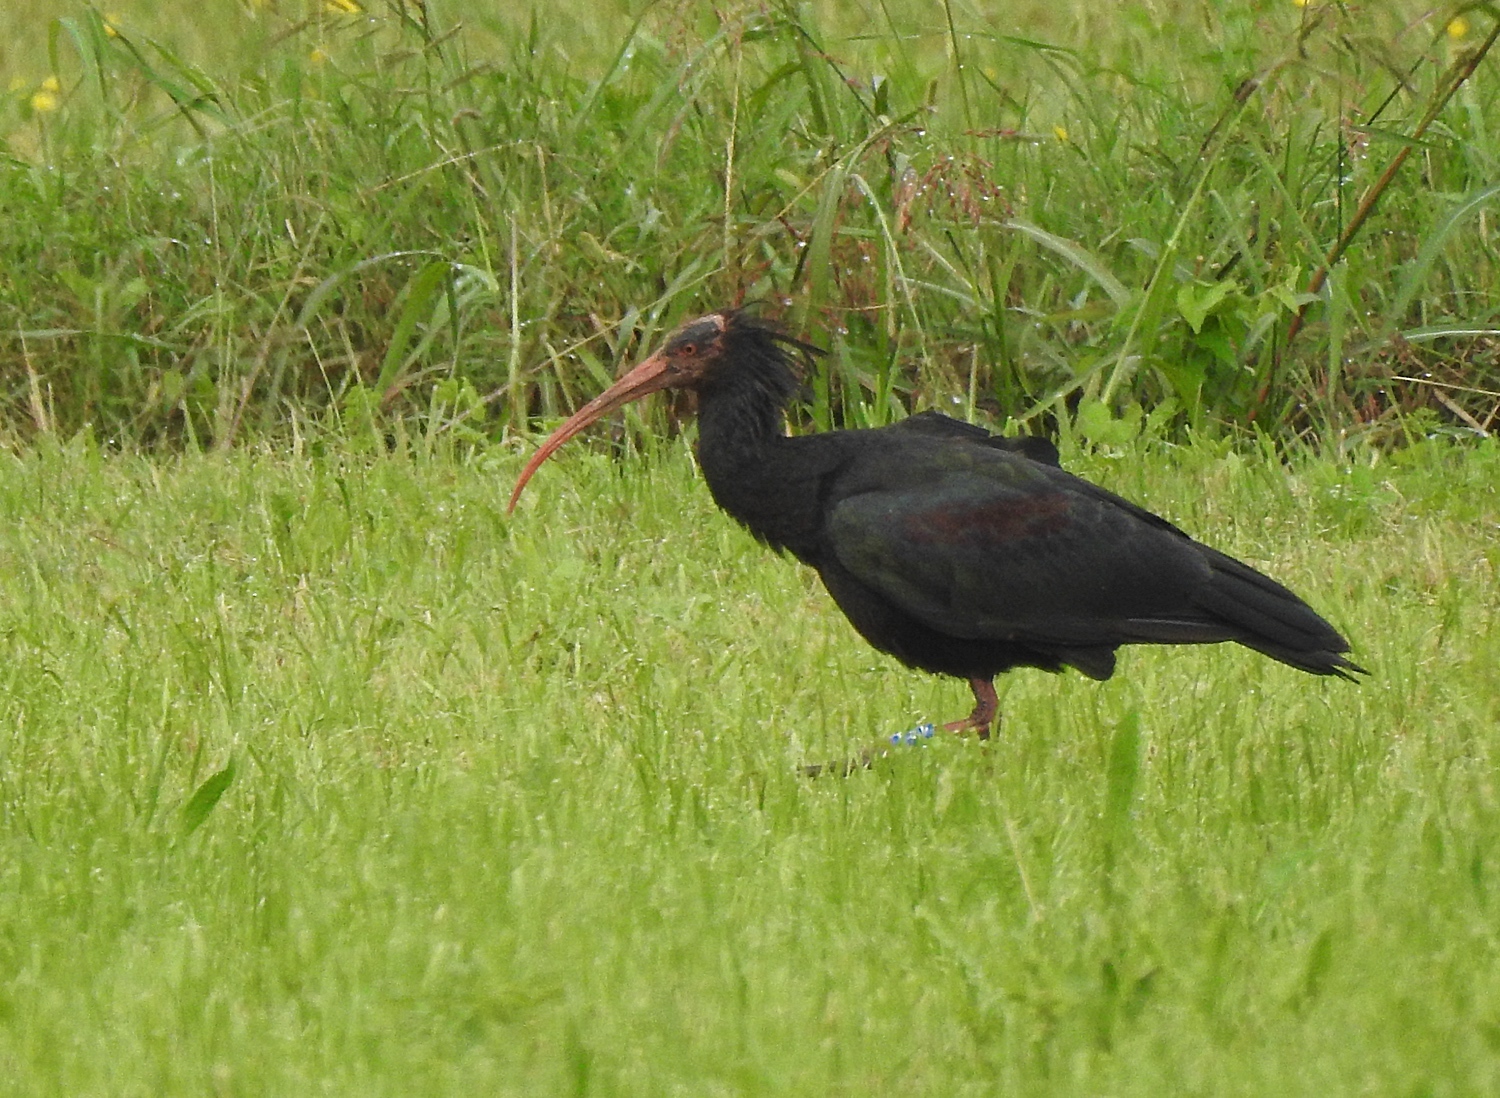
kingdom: Animalia
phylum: Chordata
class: Aves
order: Pelecaniformes
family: Threskiornithidae
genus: Geronticus
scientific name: Geronticus eremita
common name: Northern bald ibis
